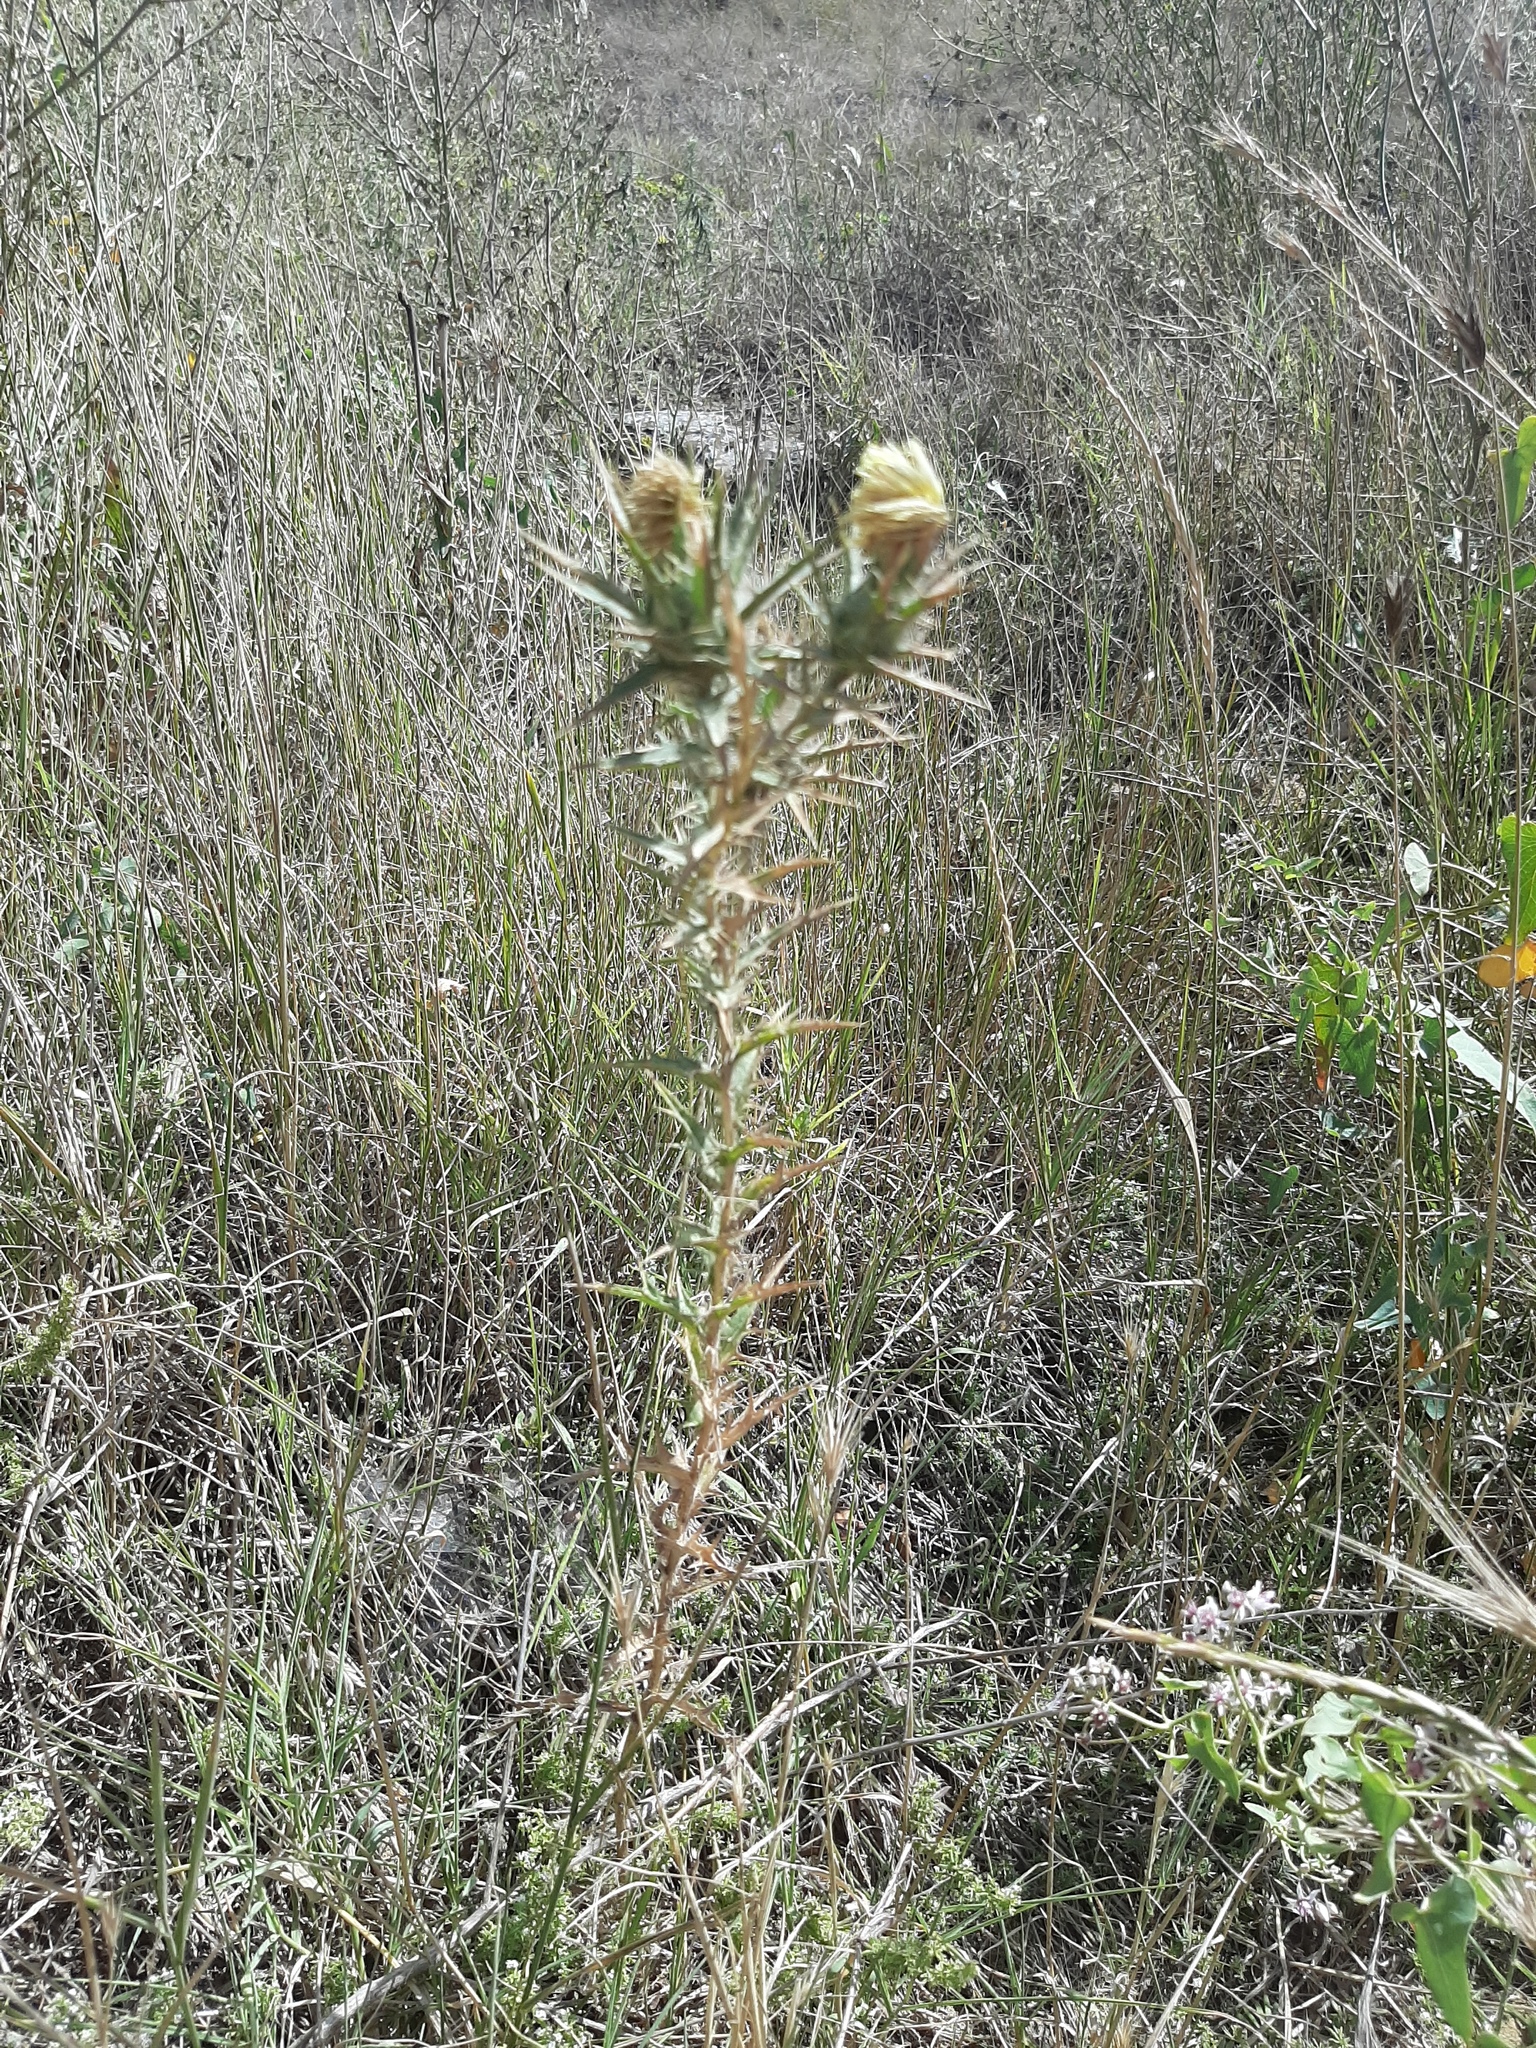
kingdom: Plantae
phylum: Tracheophyta
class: Magnoliopsida
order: Asterales
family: Asteraceae
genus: Carthamus
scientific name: Carthamus lanatus
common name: Downy safflower
